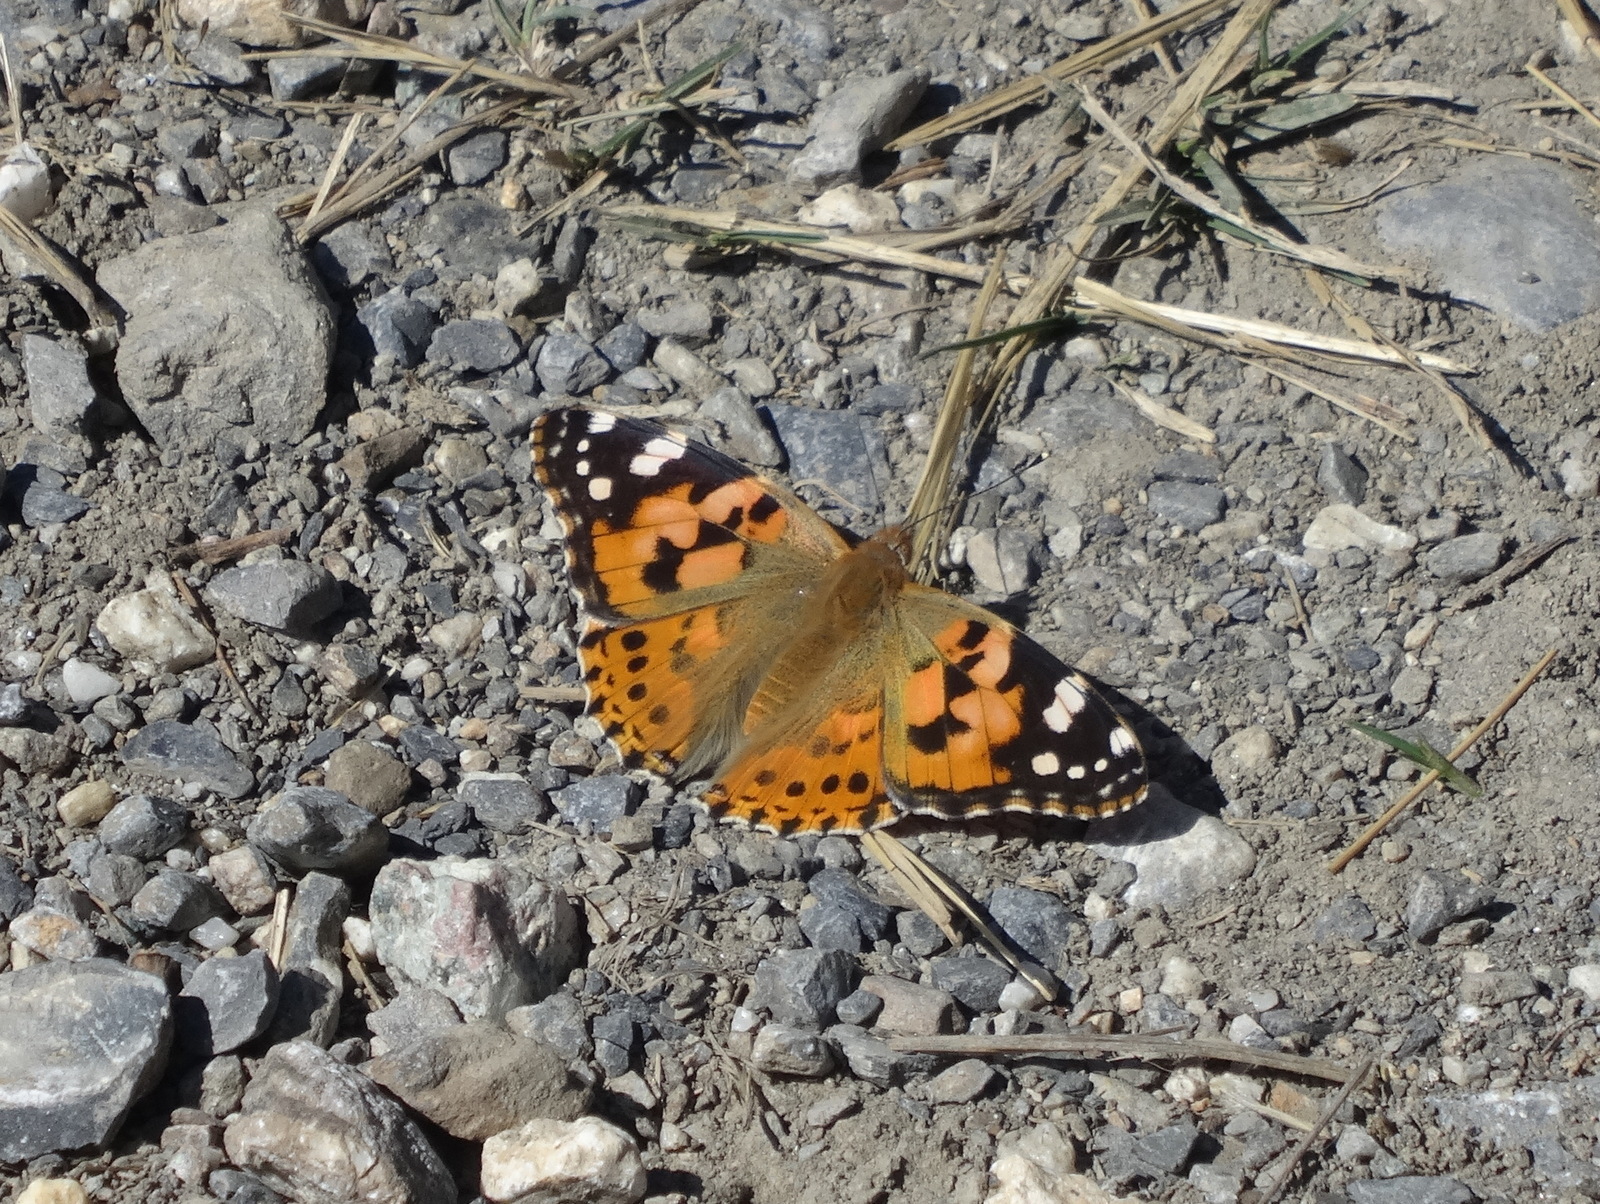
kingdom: Animalia
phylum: Arthropoda
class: Insecta
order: Lepidoptera
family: Nymphalidae
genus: Vanessa
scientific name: Vanessa cardui
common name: Painted lady
